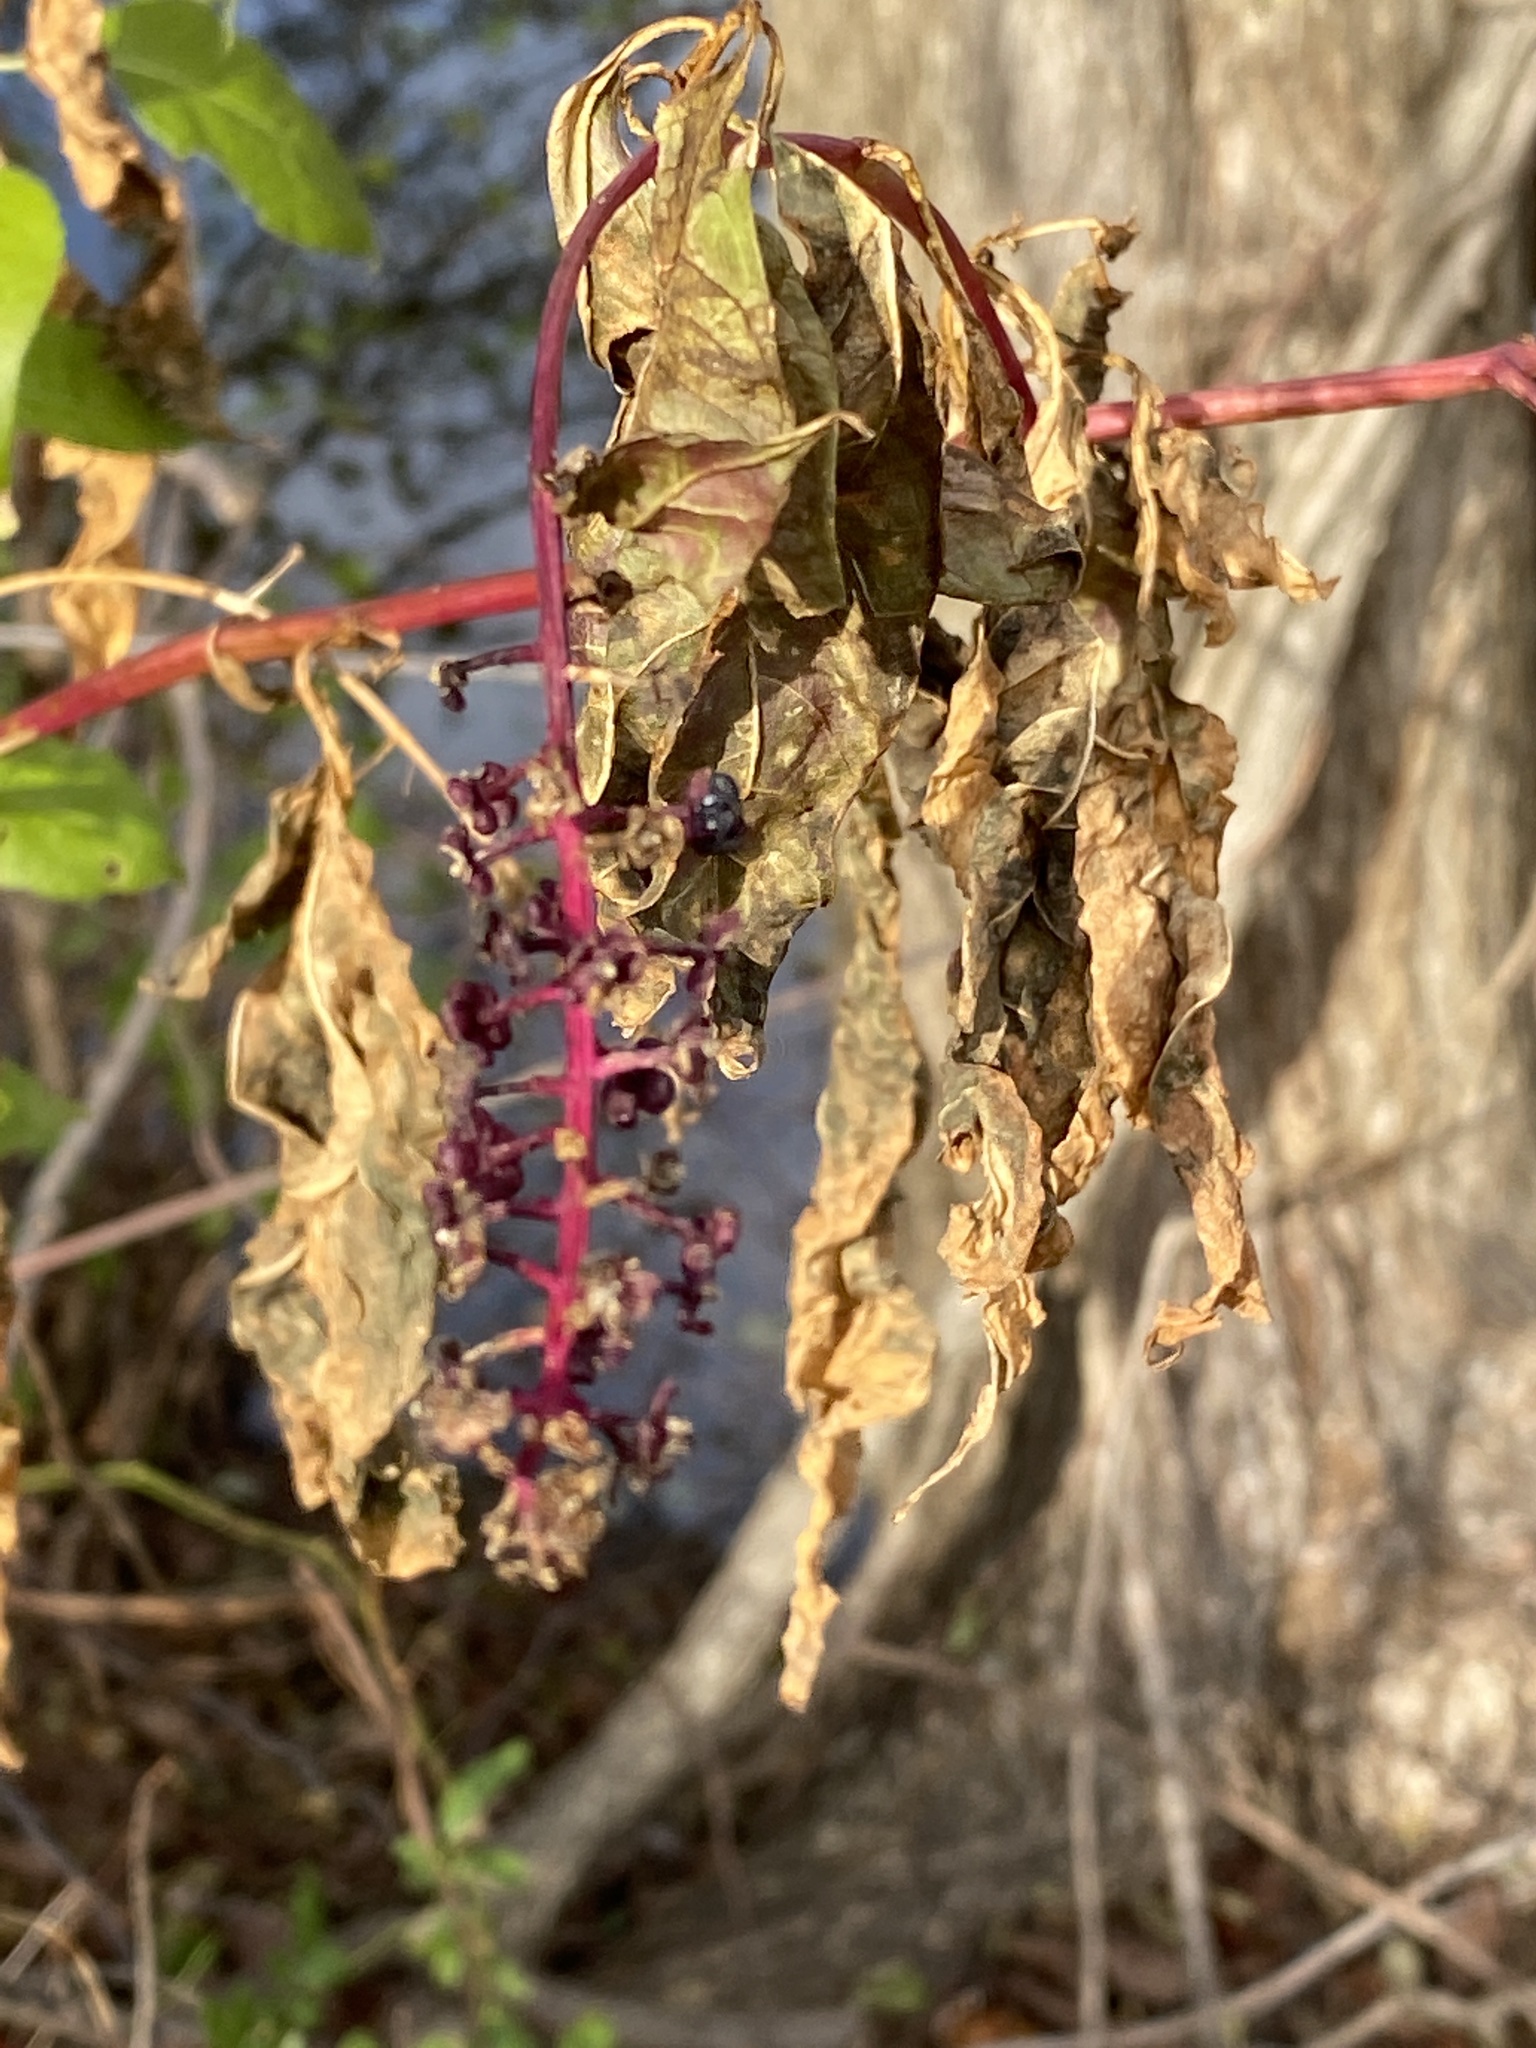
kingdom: Plantae
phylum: Tracheophyta
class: Magnoliopsida
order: Caryophyllales
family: Phytolaccaceae
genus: Phytolacca
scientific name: Phytolacca americana
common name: American pokeweed
